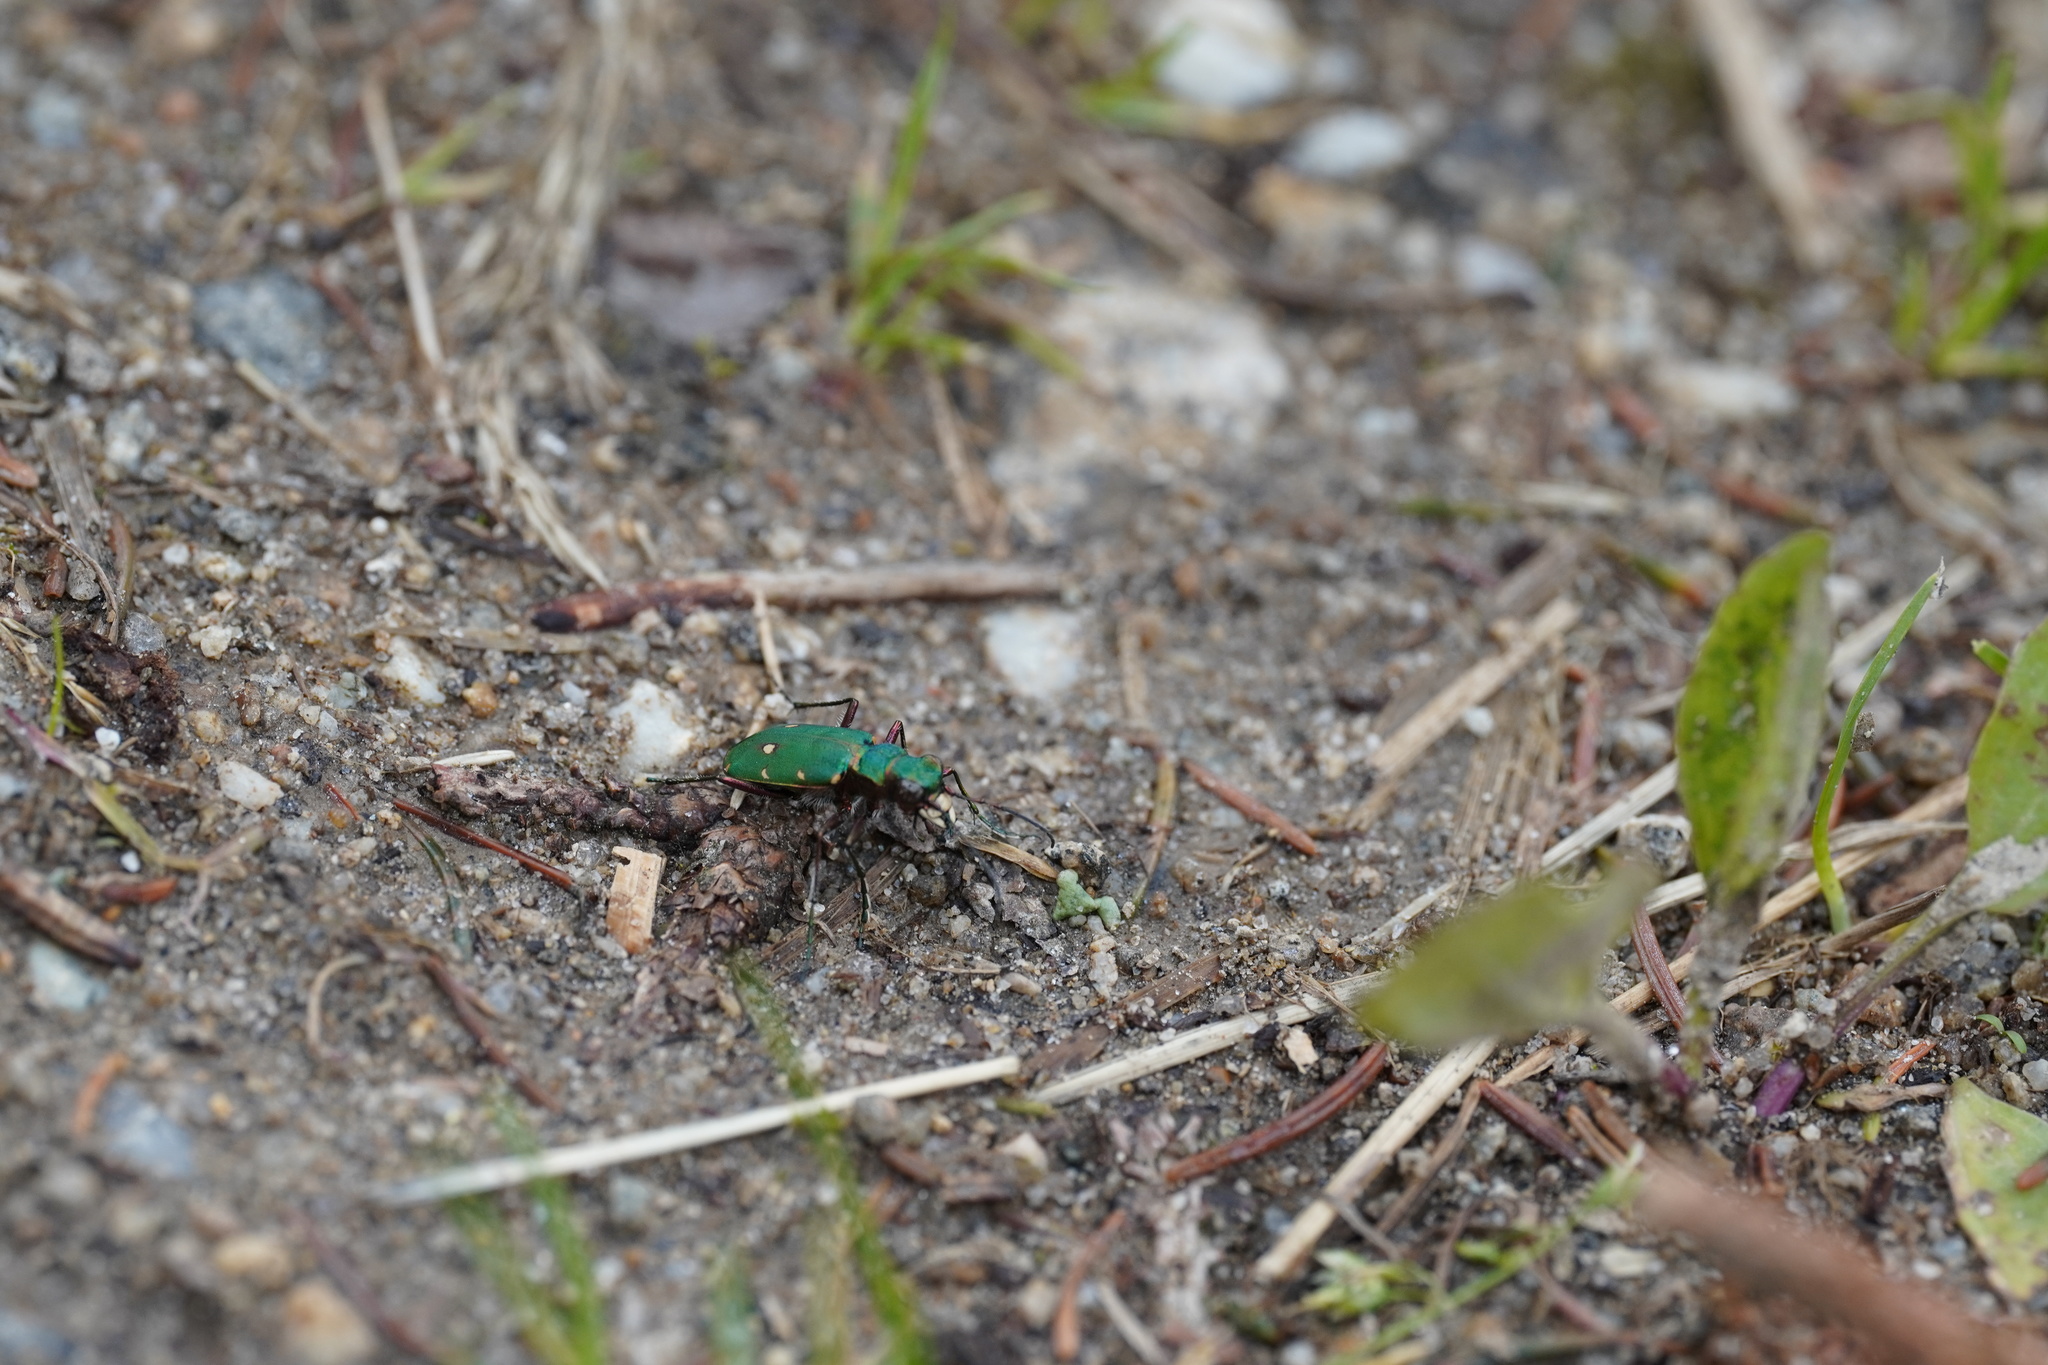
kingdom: Animalia
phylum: Arthropoda
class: Insecta
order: Coleoptera
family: Carabidae
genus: Cicindela
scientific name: Cicindela campestris
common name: Common tiger beetle
